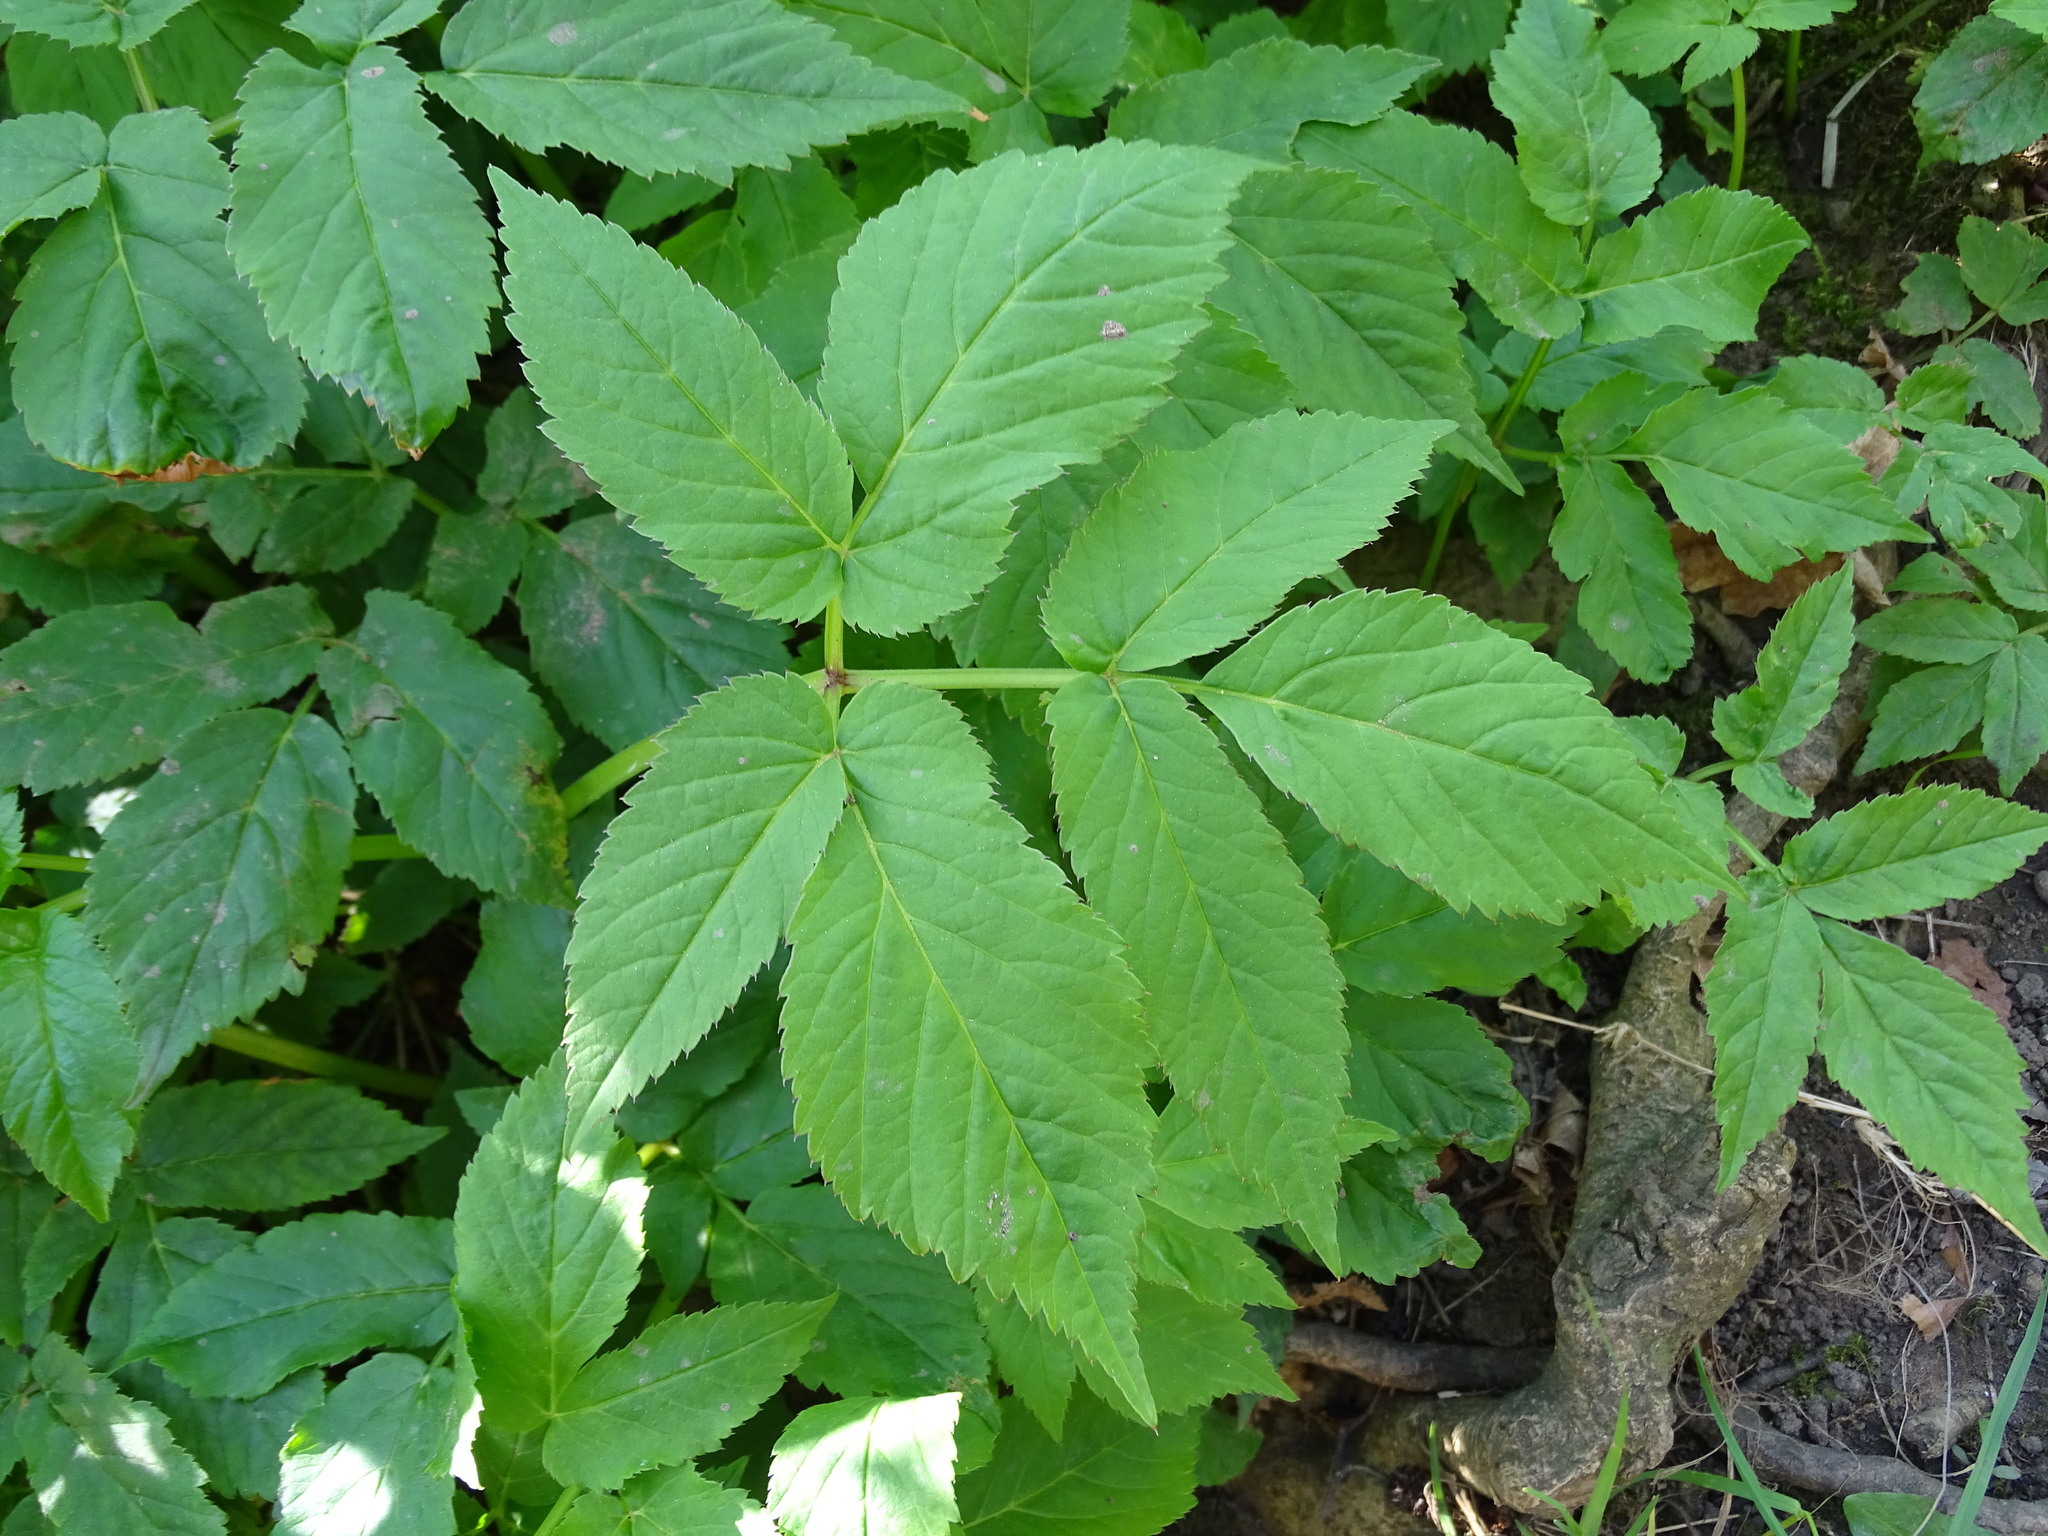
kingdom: Plantae
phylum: Tracheophyta
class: Magnoliopsida
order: Apiales
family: Apiaceae
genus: Aegopodium
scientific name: Aegopodium podagraria
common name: Ground-elder
